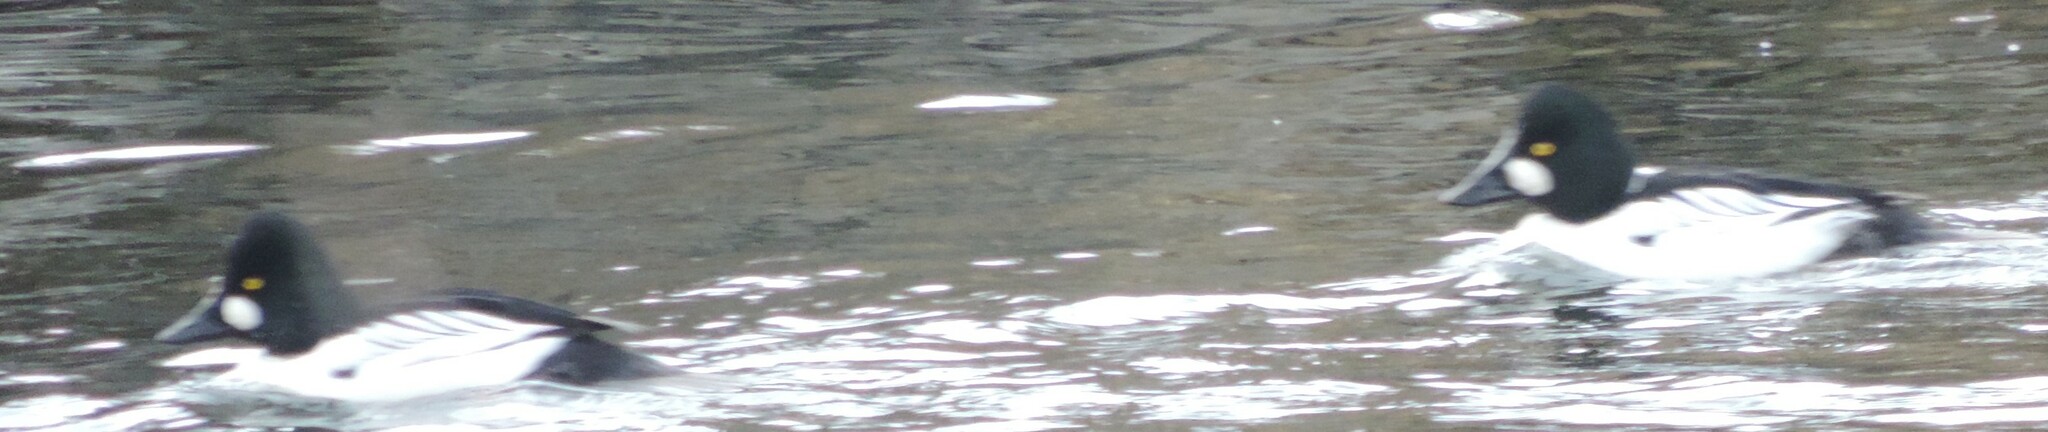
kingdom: Animalia
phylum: Chordata
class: Aves
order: Anseriformes
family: Anatidae
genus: Bucephala
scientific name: Bucephala clangula
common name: Common goldeneye
